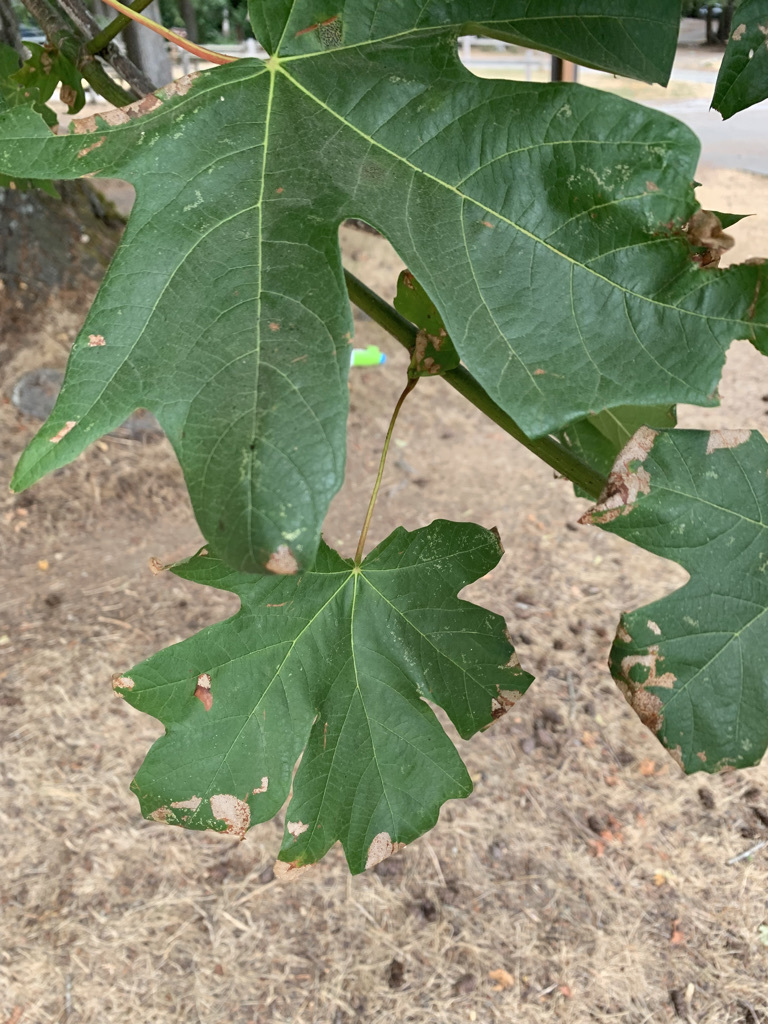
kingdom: Animalia
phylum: Arthropoda
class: Insecta
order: Lepidoptera
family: Gracillariidae
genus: Caloptilia
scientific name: Caloptilia acerifoliella
